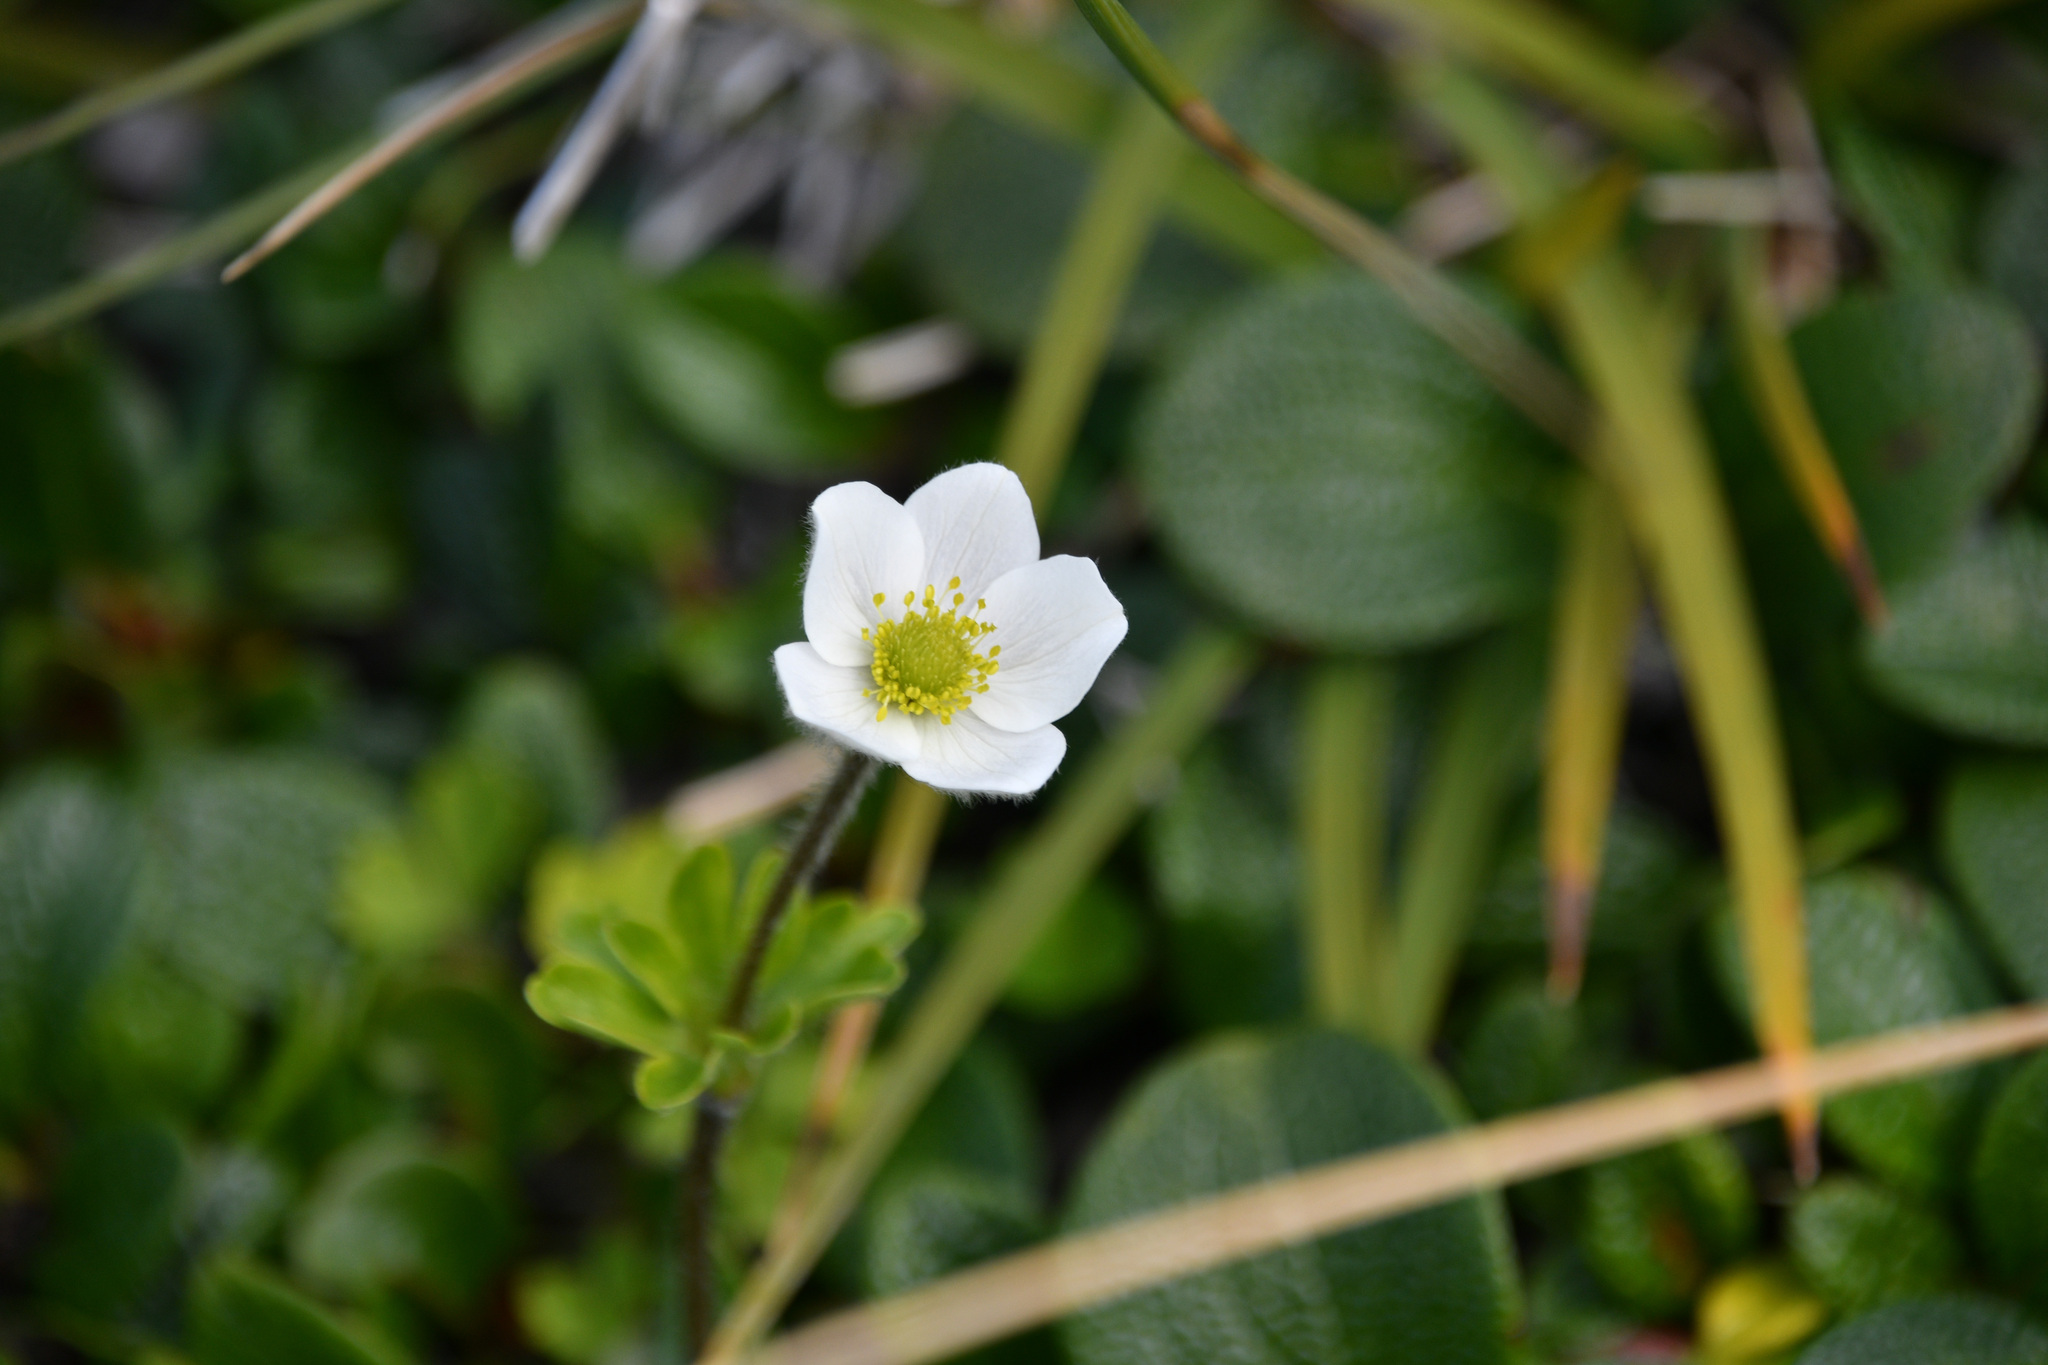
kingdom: Plantae
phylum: Tracheophyta
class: Magnoliopsida
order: Ranunculales
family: Ranunculaceae
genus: Anemone
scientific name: Anemone parviflora
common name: Northern anemone
